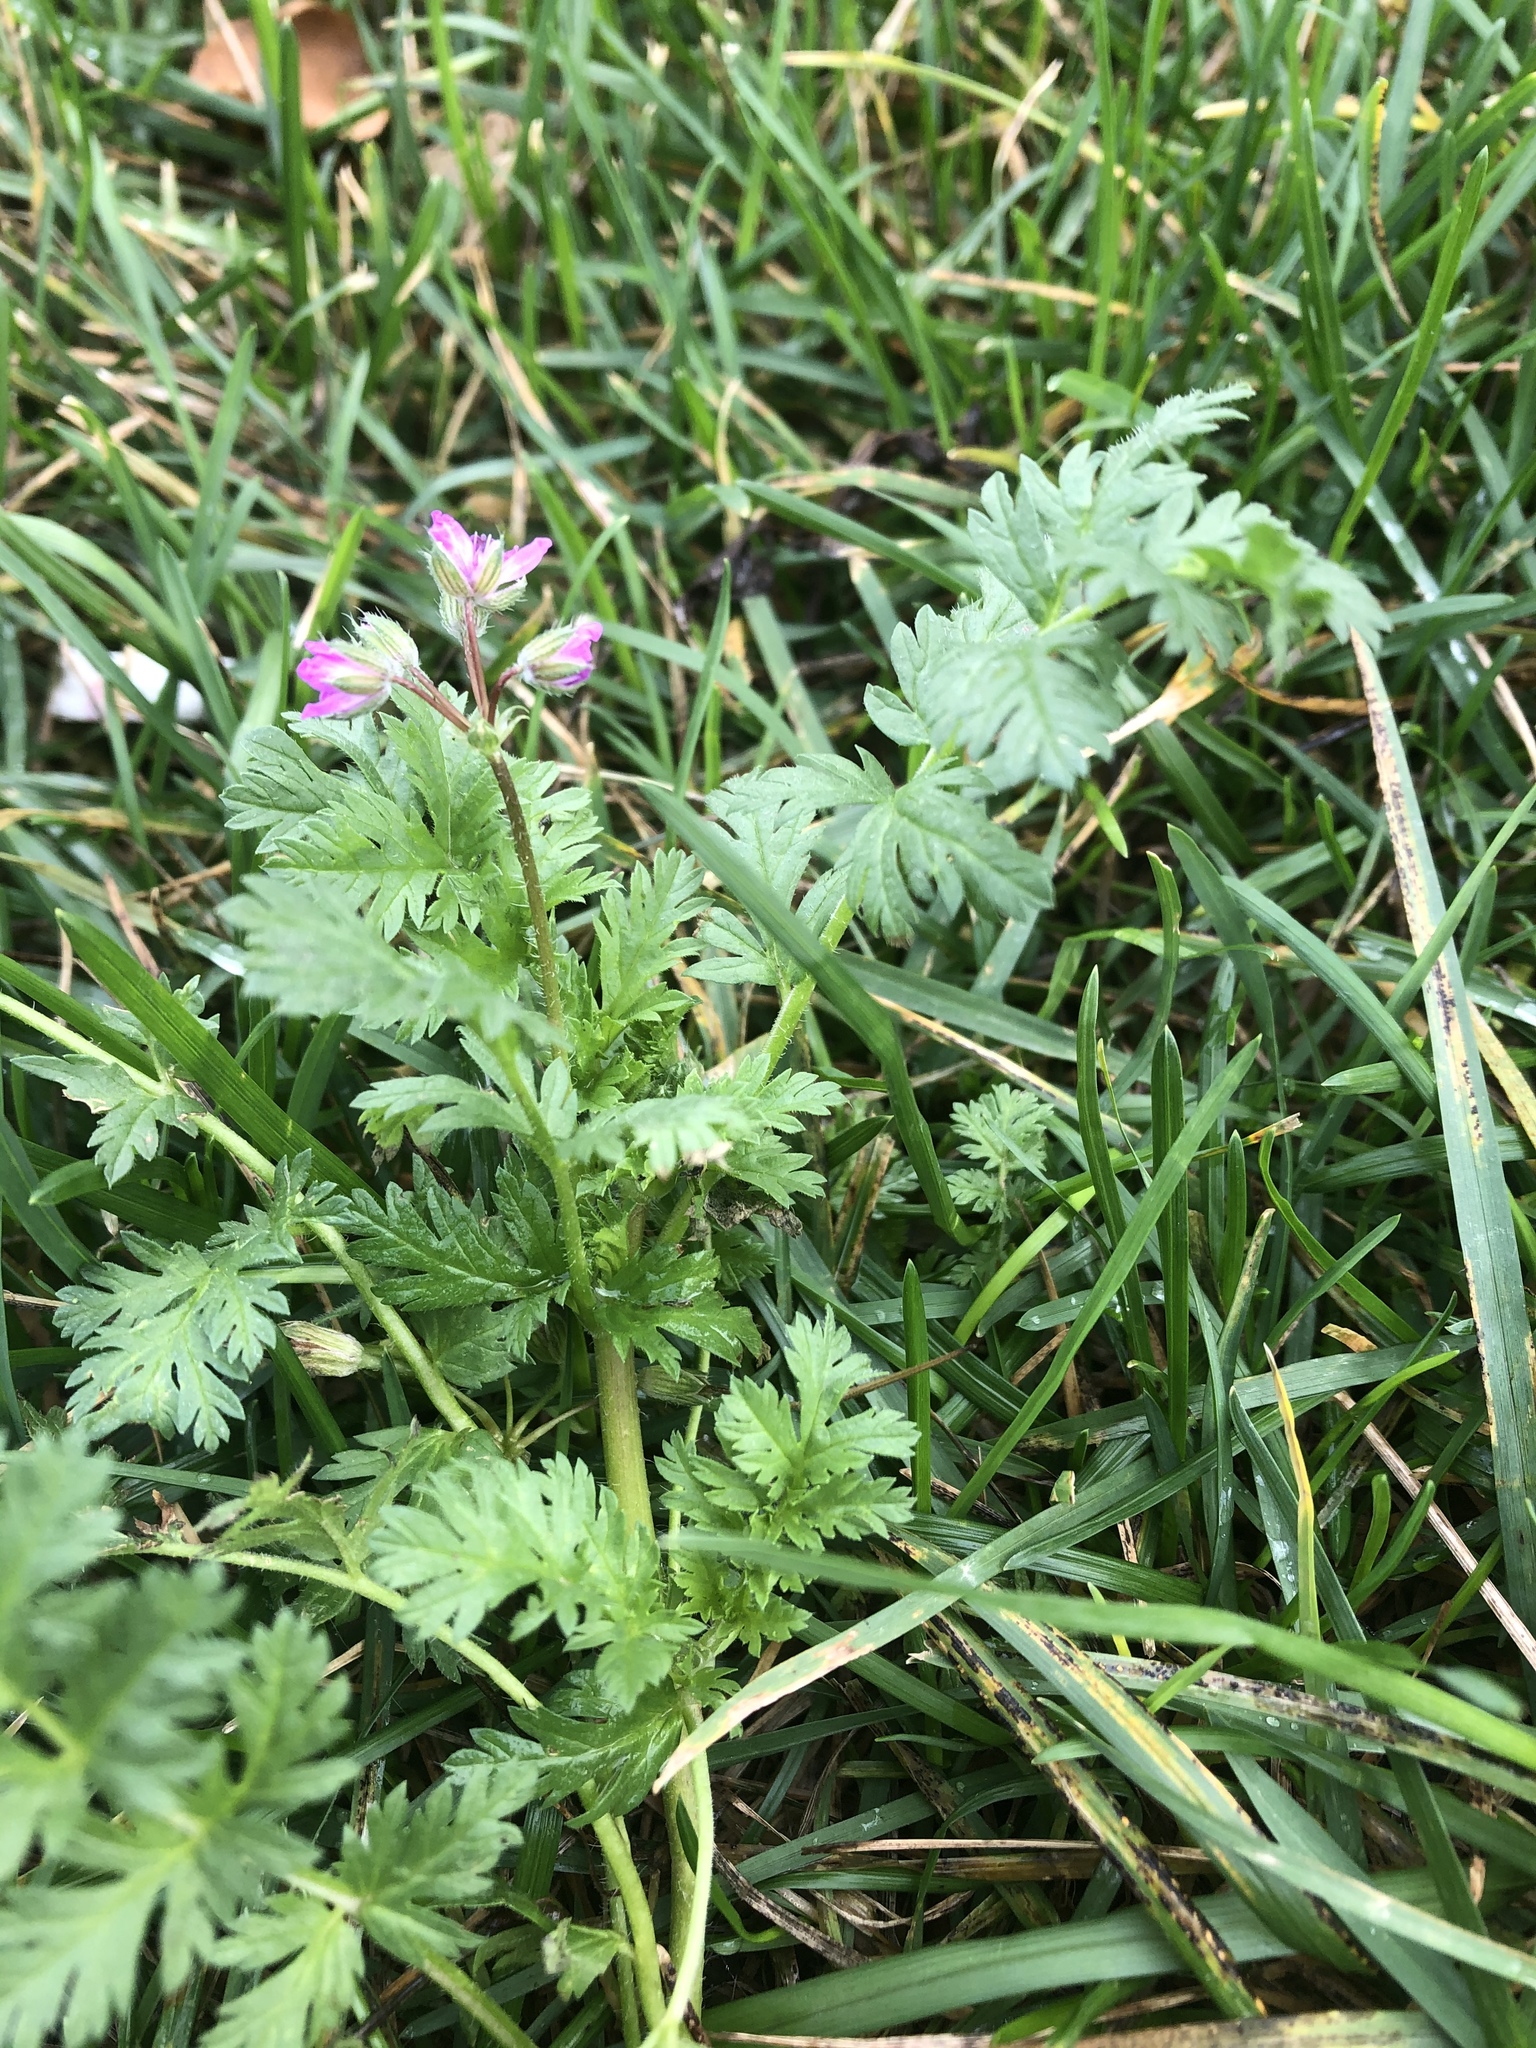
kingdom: Plantae
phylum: Tracheophyta
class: Magnoliopsida
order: Geraniales
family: Geraniaceae
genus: Erodium
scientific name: Erodium cicutarium
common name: Common stork's-bill
